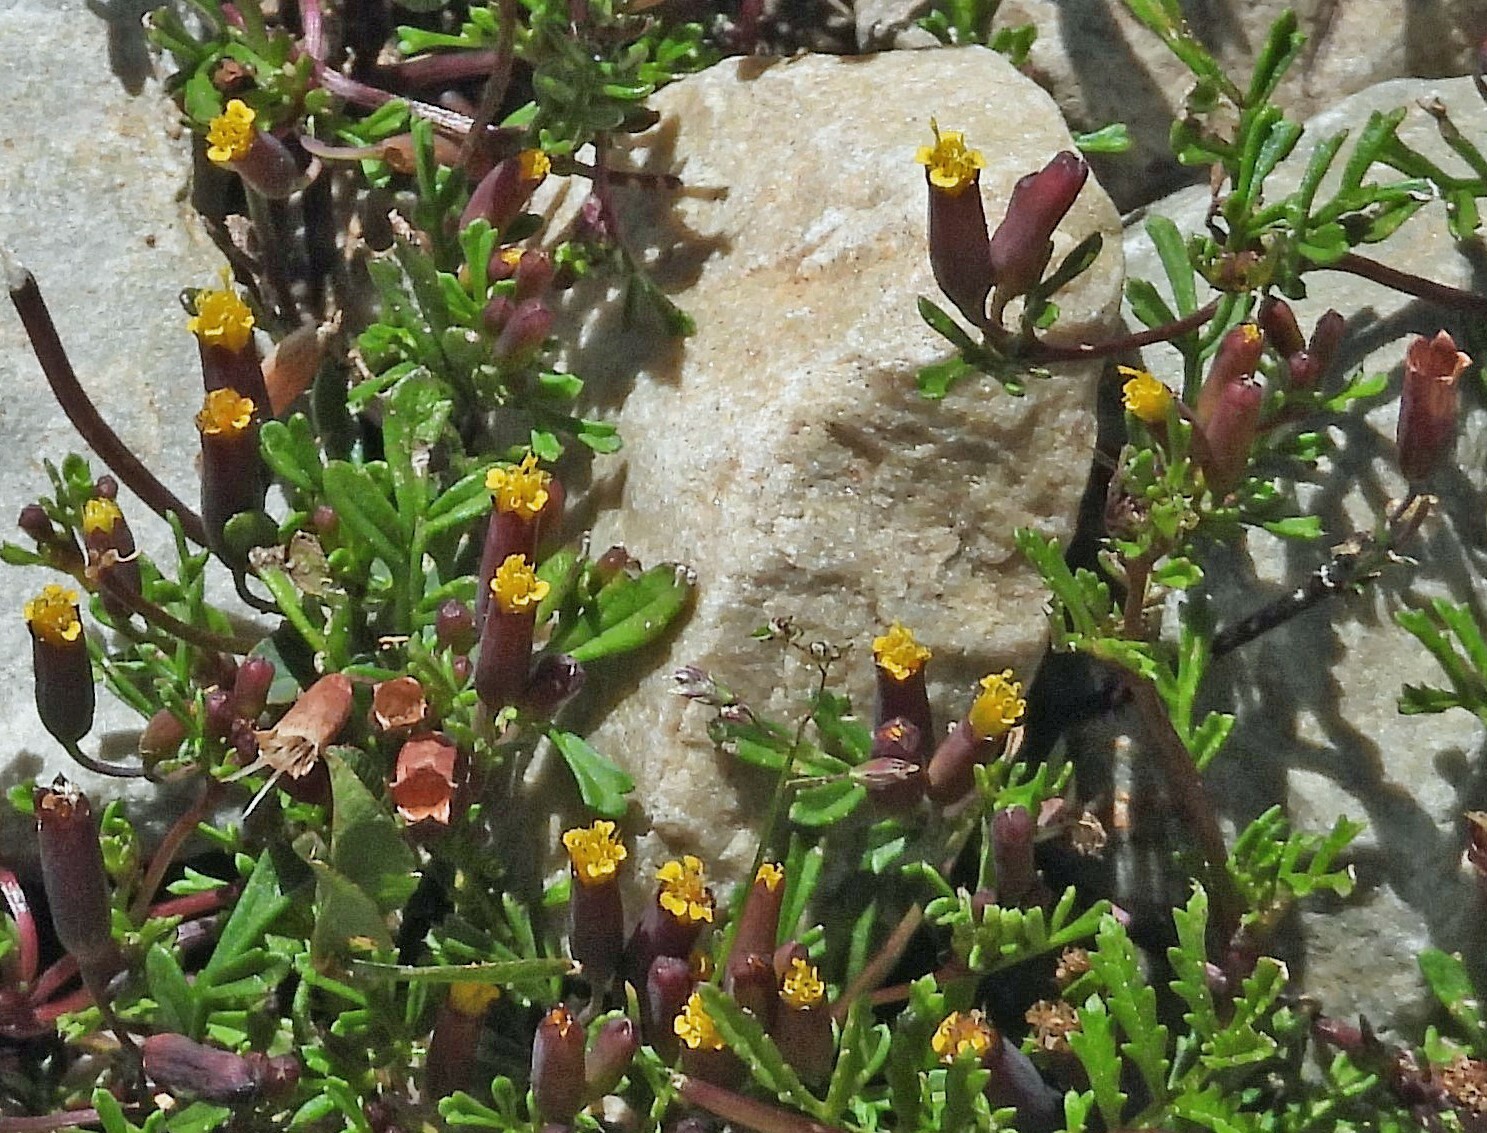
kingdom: Plantae
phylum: Tracheophyta
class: Magnoliopsida
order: Asterales
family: Asteraceae
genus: Tagetes
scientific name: Tagetes multiflora
